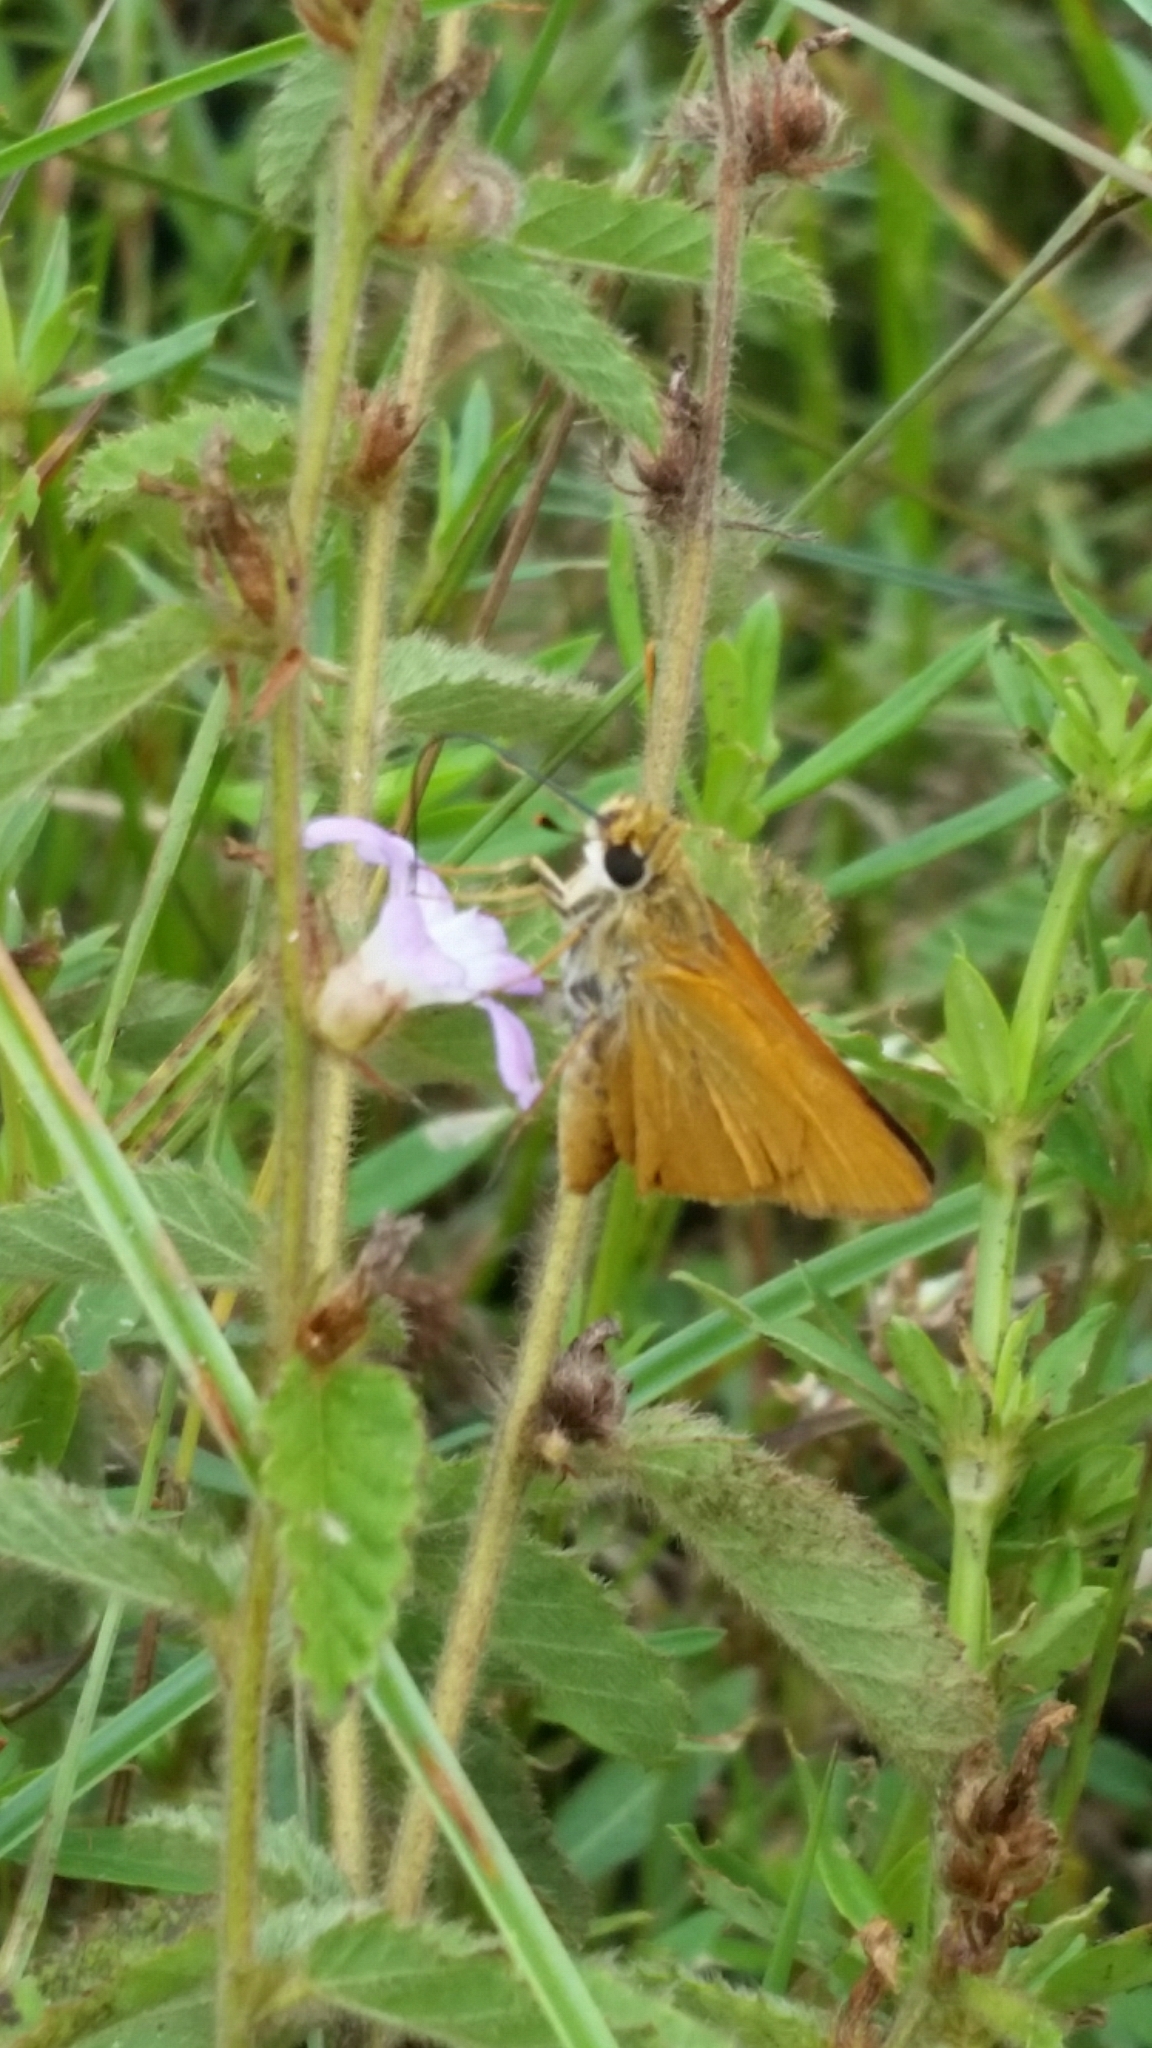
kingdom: Animalia
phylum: Arthropoda
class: Insecta
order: Lepidoptera
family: Hesperiidae
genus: Atrytone
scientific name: Atrytone delaware
